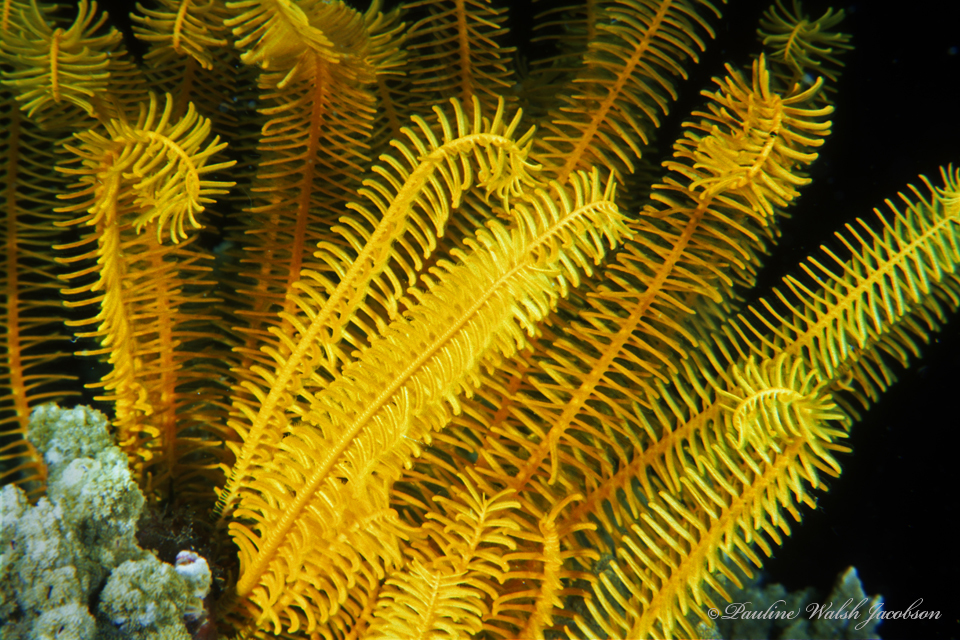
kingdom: Animalia
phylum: Echinodermata
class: Crinoidea
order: Comatulida
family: Comatulidae
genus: Comaster
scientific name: Comaster schlegelii
